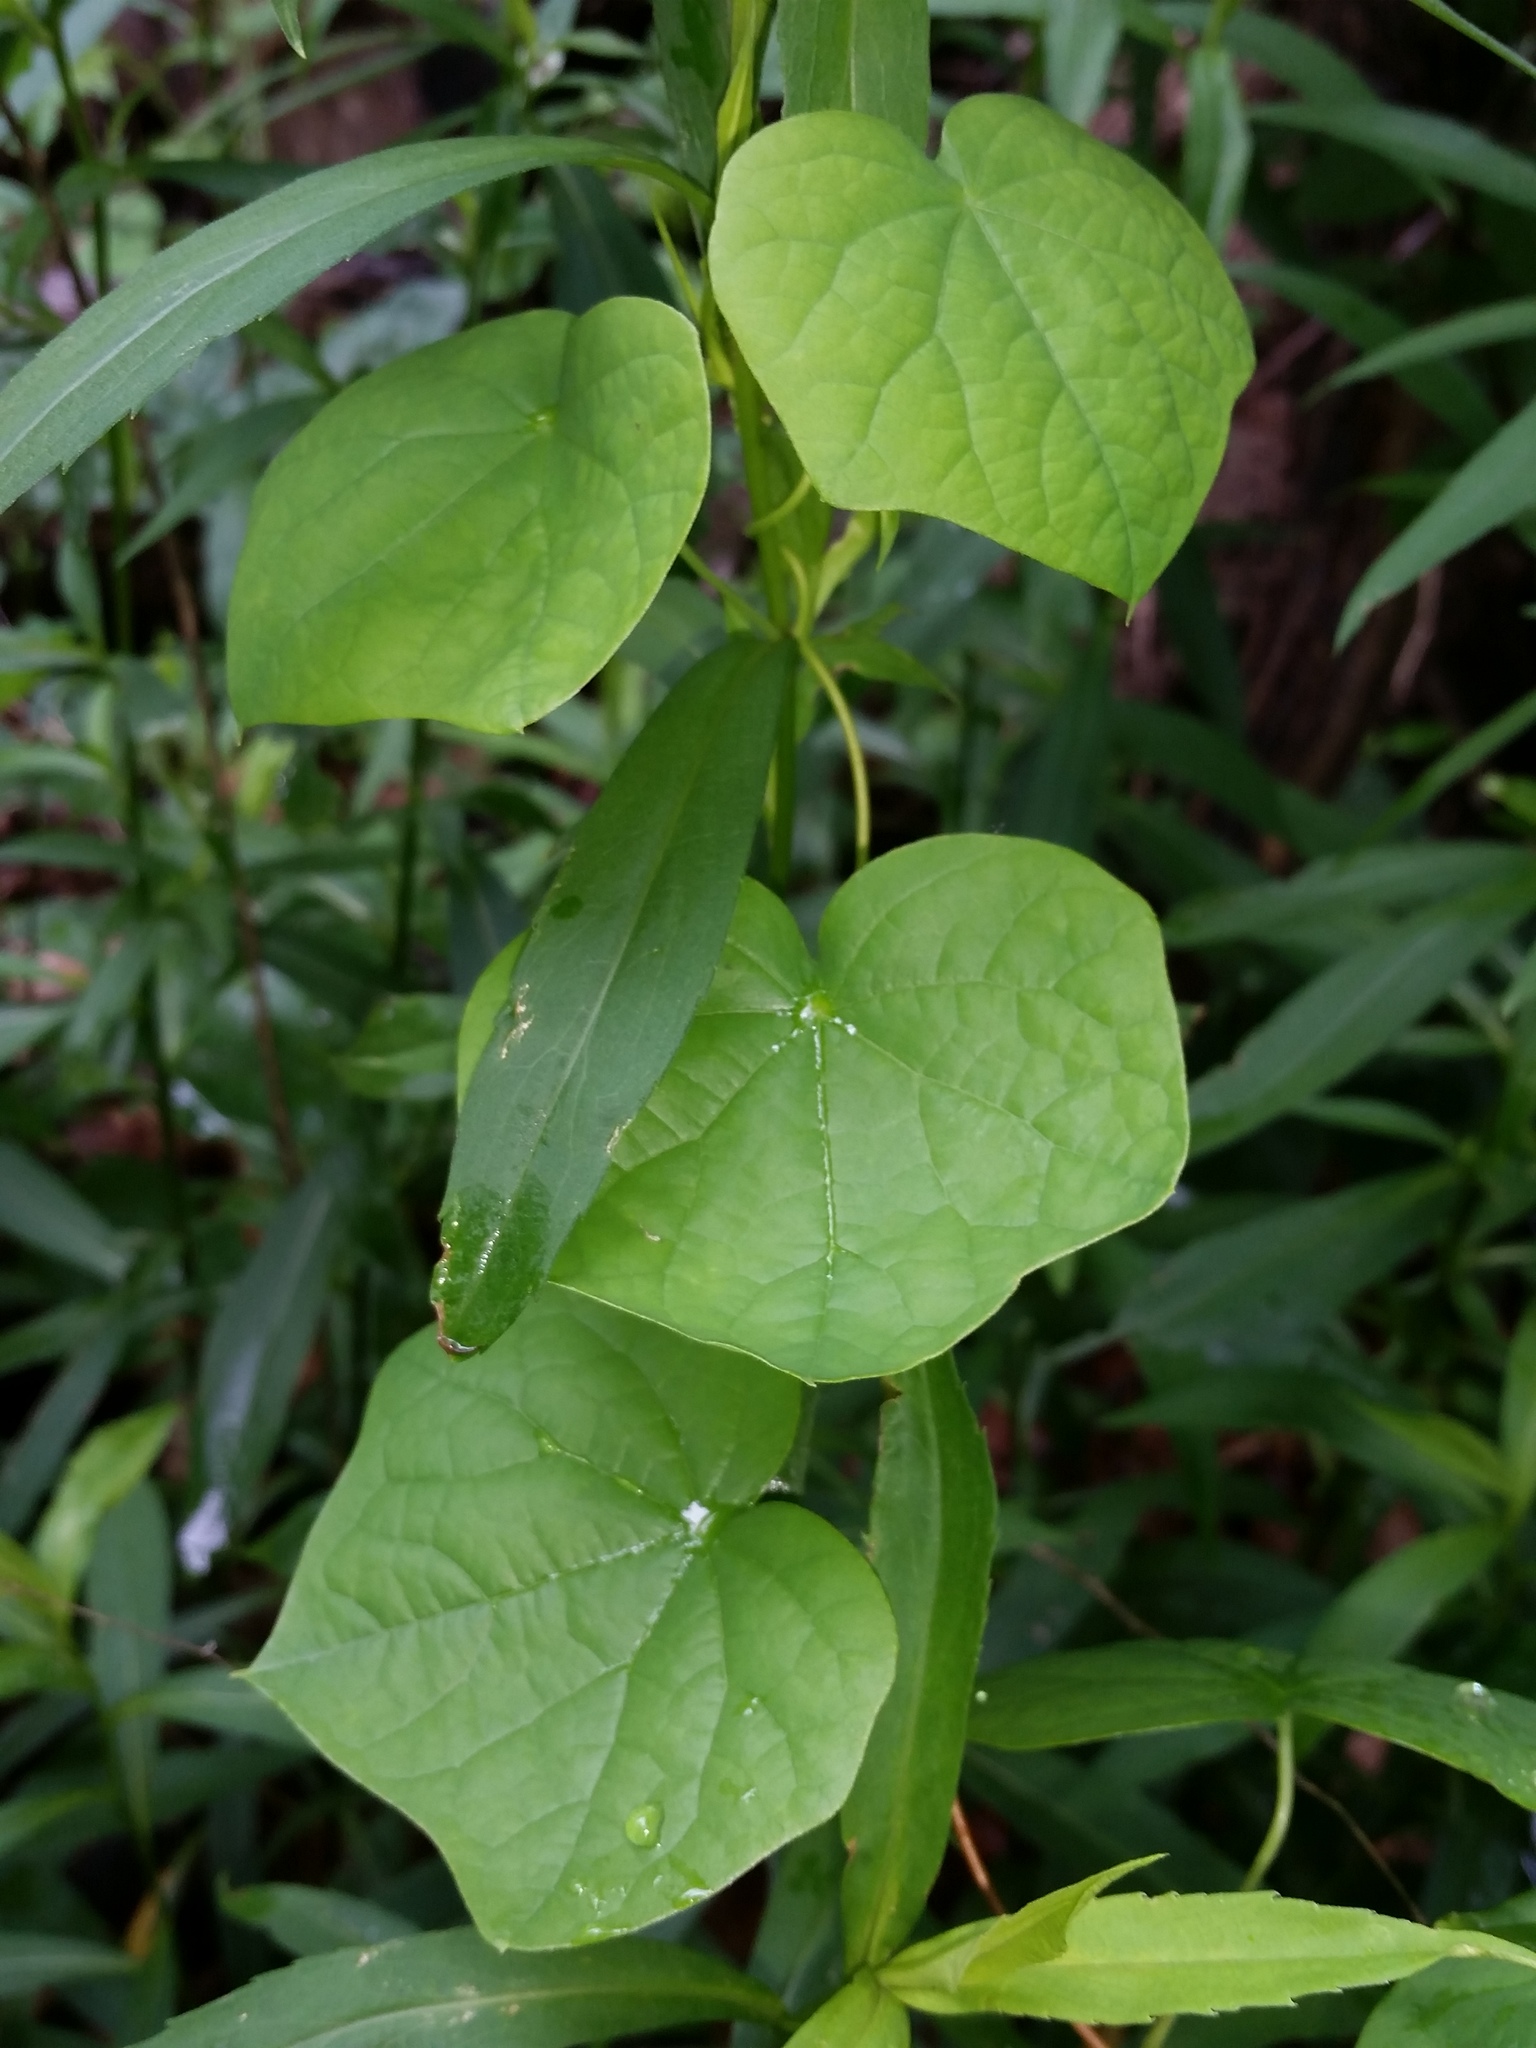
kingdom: Plantae
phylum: Tracheophyta
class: Magnoliopsida
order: Ranunculales
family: Menispermaceae
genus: Menispermum
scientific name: Menispermum canadense
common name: Moonseed
